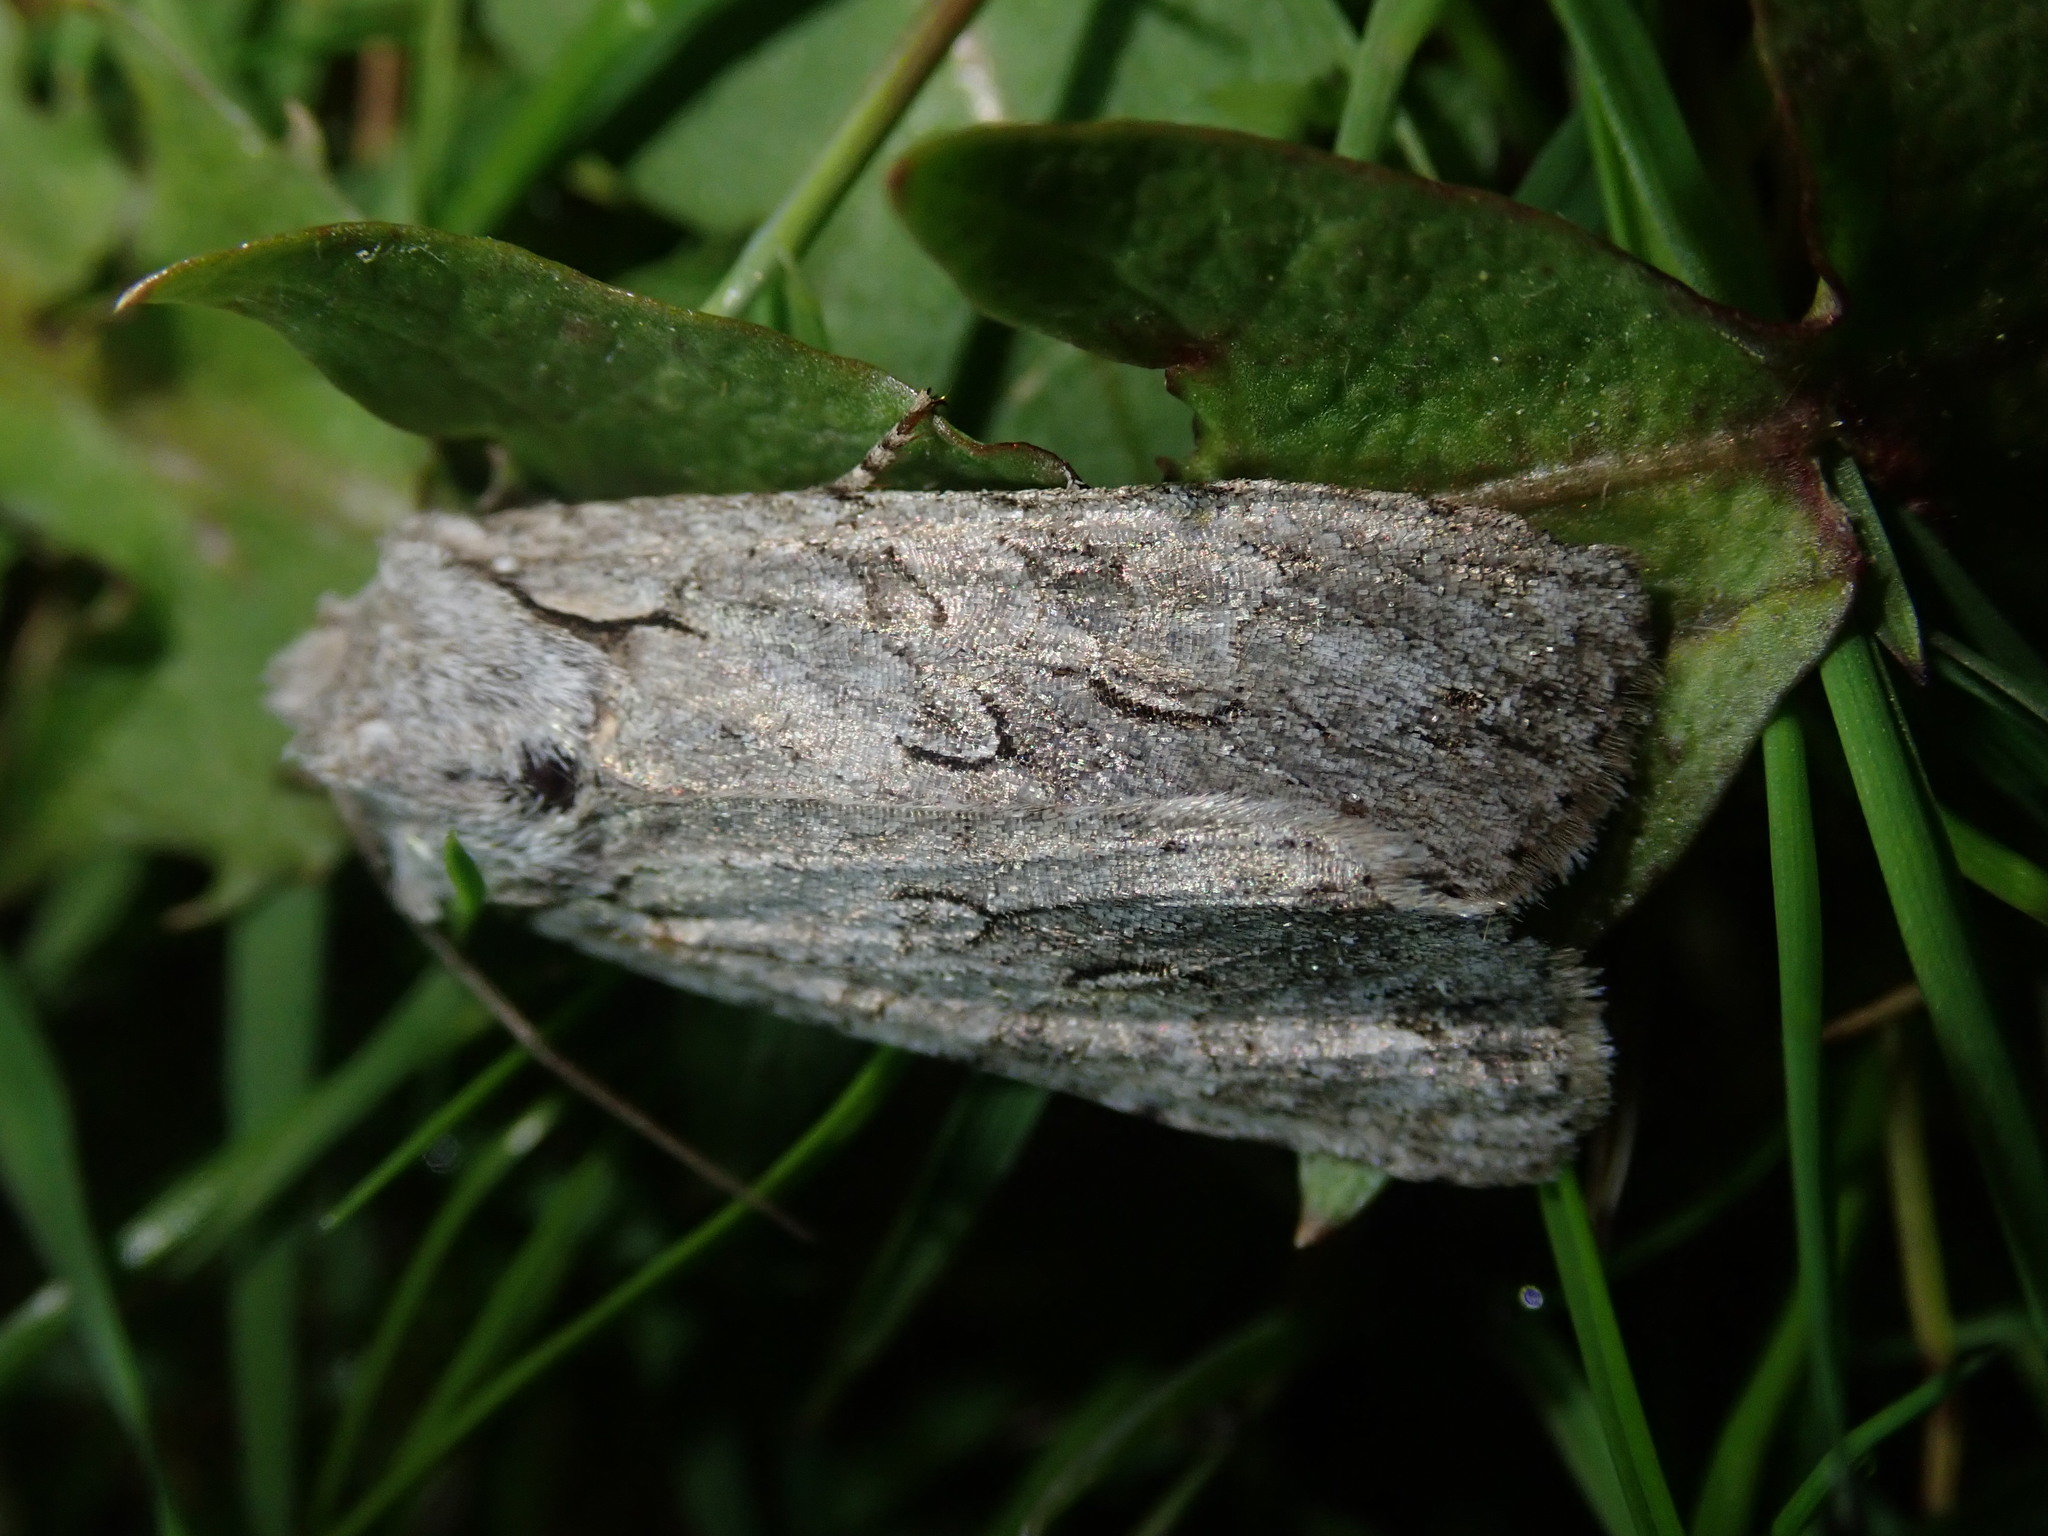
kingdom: Animalia
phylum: Arthropoda
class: Insecta
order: Lepidoptera
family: Noctuidae
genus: Lithophane
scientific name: Lithophane ornitopus
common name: Grey shoulder-knot
